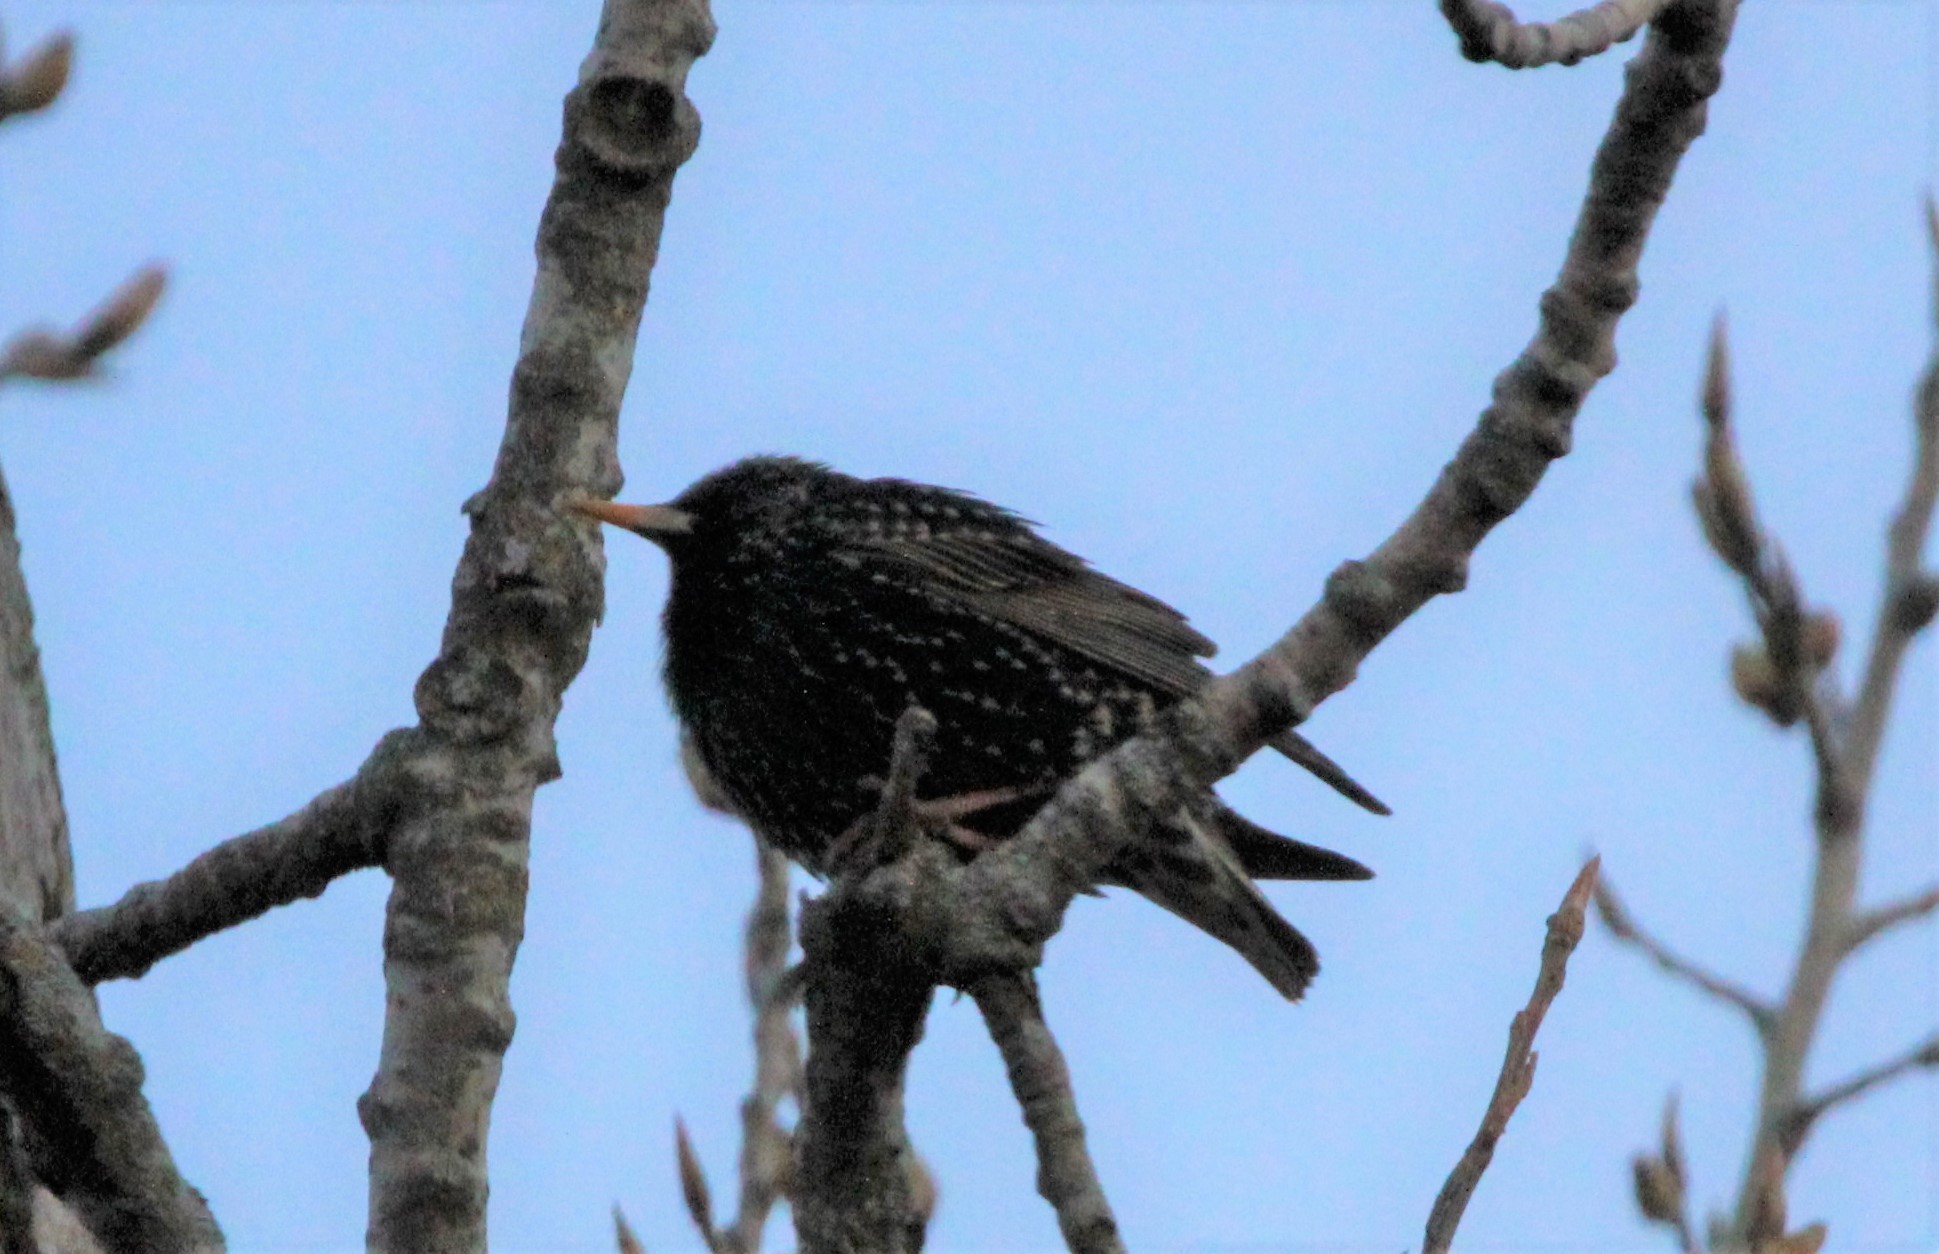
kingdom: Animalia
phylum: Chordata
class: Aves
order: Passeriformes
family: Sturnidae
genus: Sturnus
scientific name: Sturnus vulgaris
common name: Common starling
